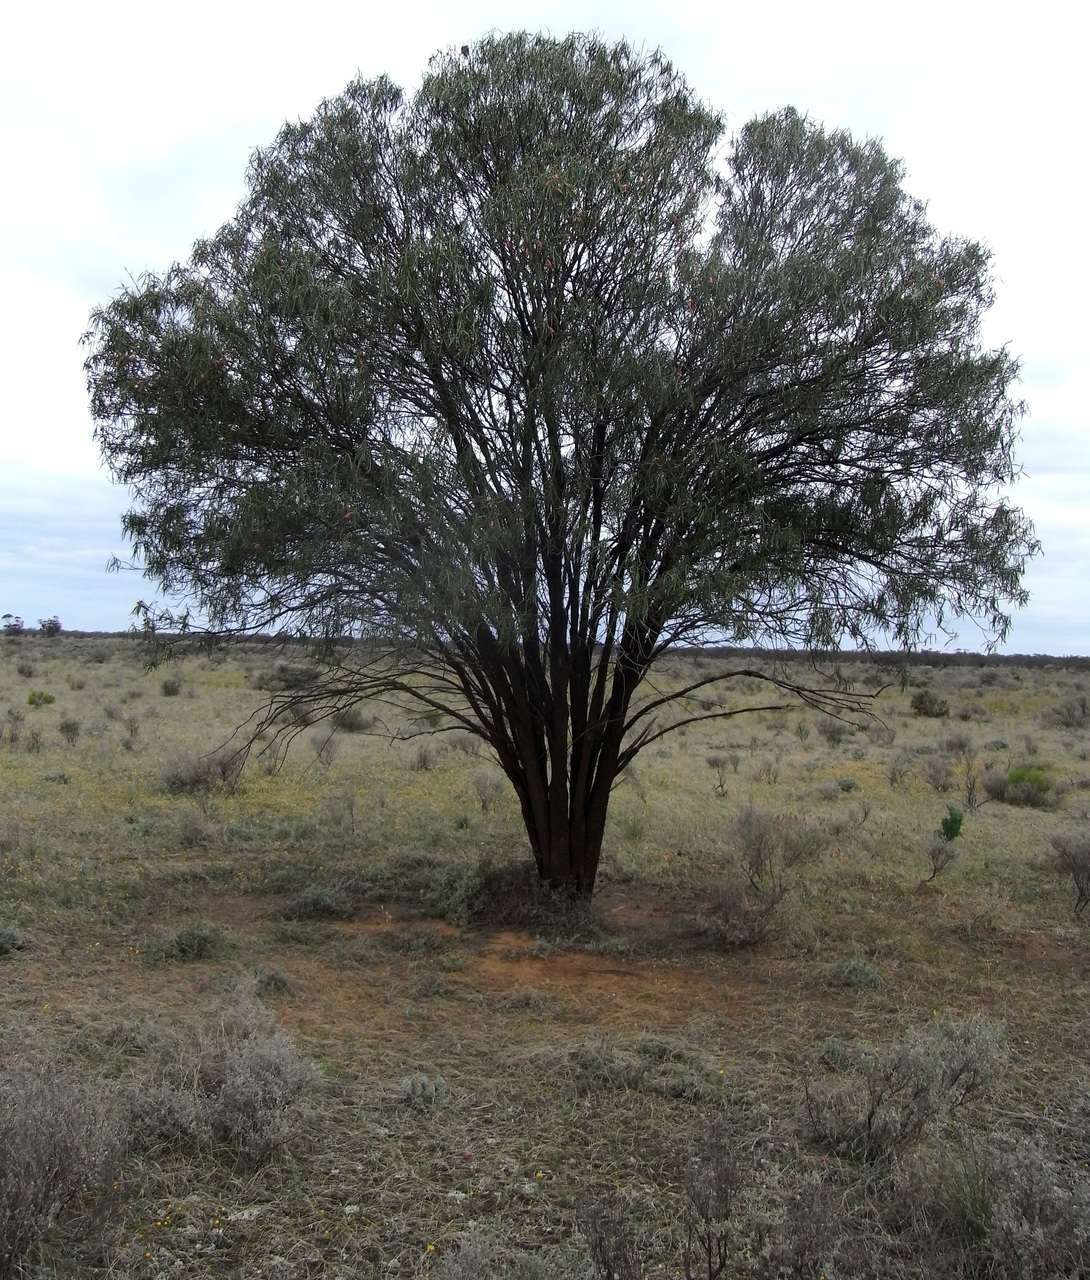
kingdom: Plantae
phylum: Tracheophyta
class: Magnoliopsida
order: Lamiales
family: Scrophulariaceae
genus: Eremophila
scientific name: Eremophila longifolia
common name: Longleaf emubush
